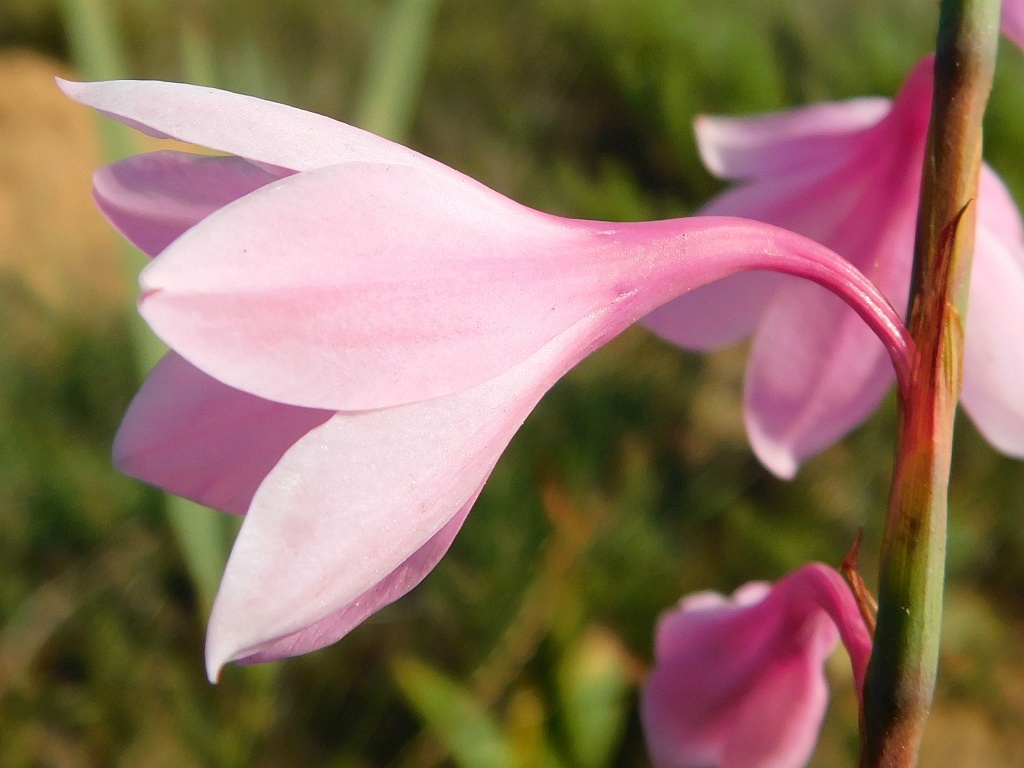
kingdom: Plantae
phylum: Tracheophyta
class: Liliopsida
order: Asparagales
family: Iridaceae
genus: Watsonia
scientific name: Watsonia laccata
